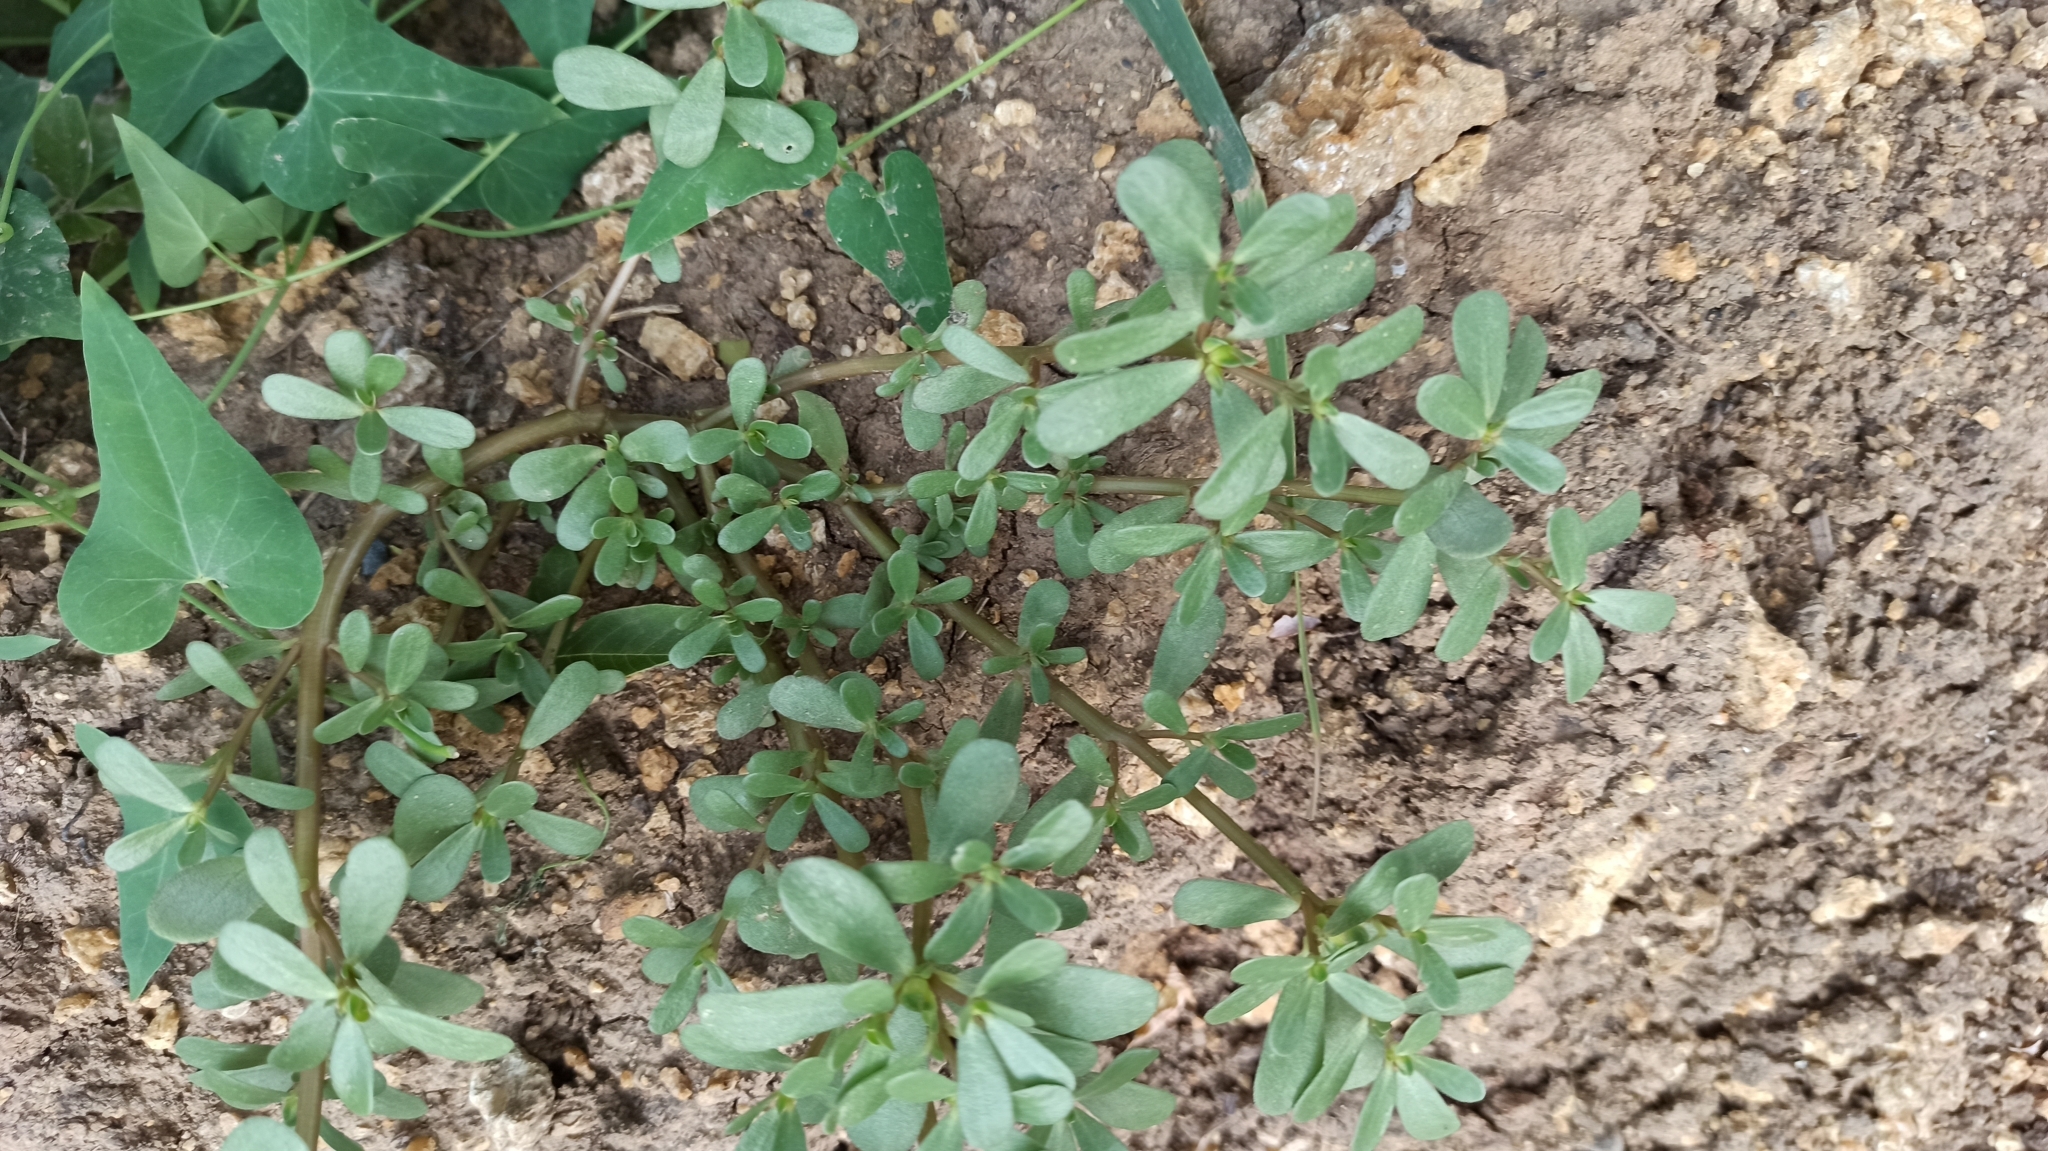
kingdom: Plantae
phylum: Tracheophyta
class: Magnoliopsida
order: Caryophyllales
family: Portulacaceae
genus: Portulaca
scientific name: Portulaca oleracea
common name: Common purslane
